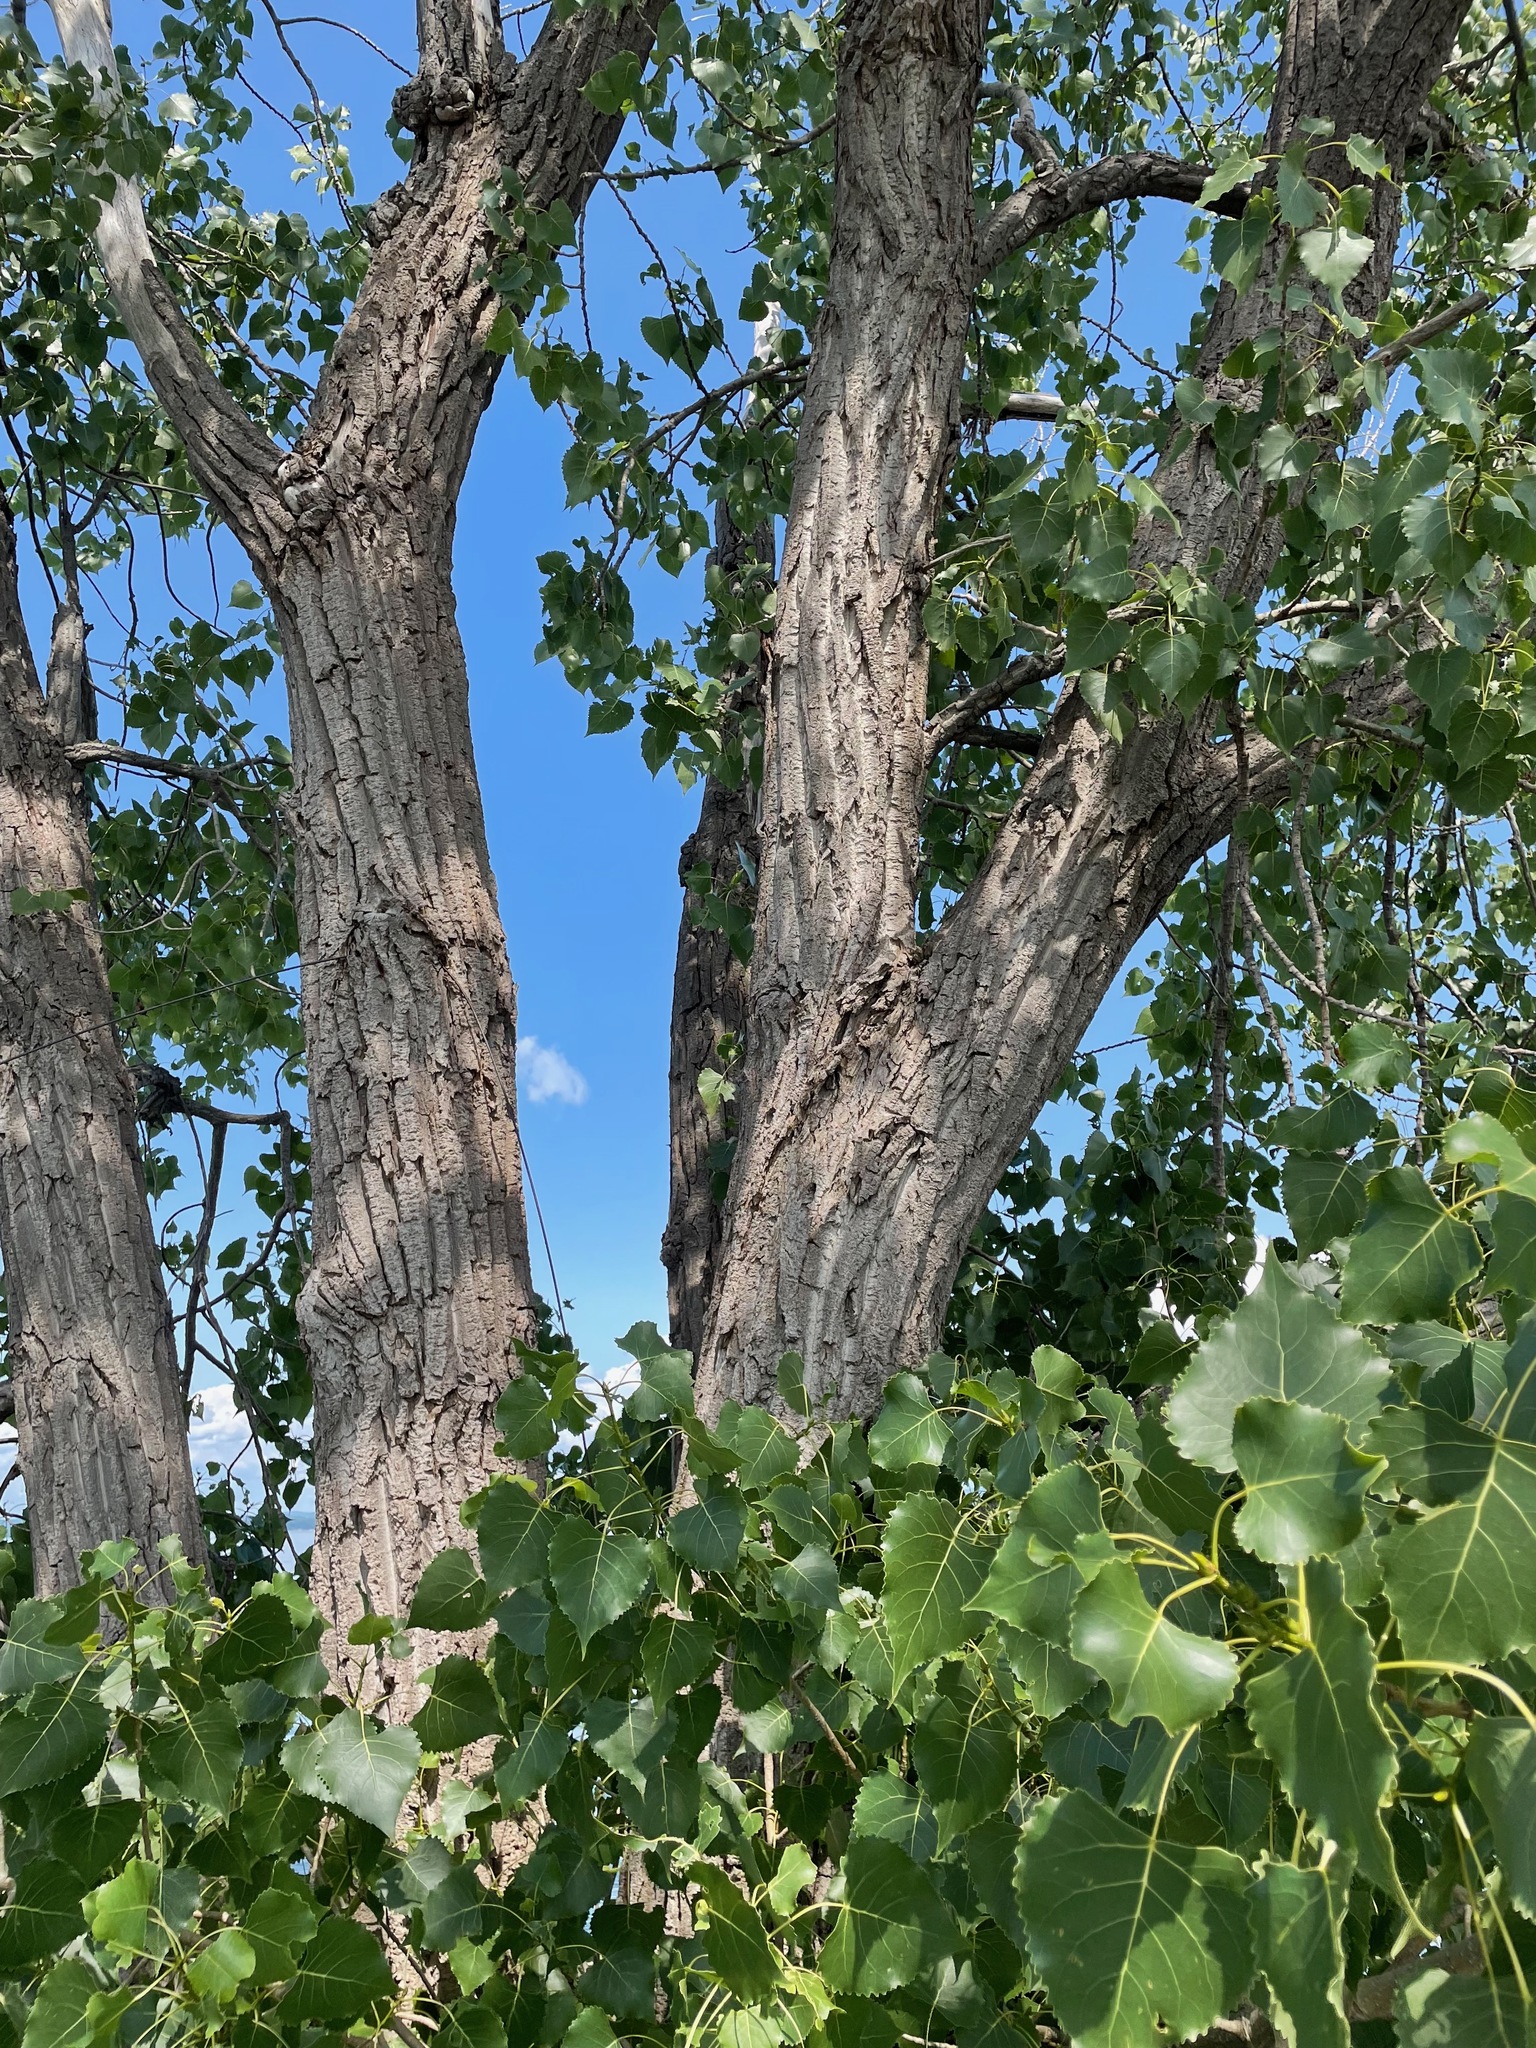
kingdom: Plantae
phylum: Tracheophyta
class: Magnoliopsida
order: Malpighiales
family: Salicaceae
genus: Populus
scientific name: Populus deltoides
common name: Eastern cottonwood
